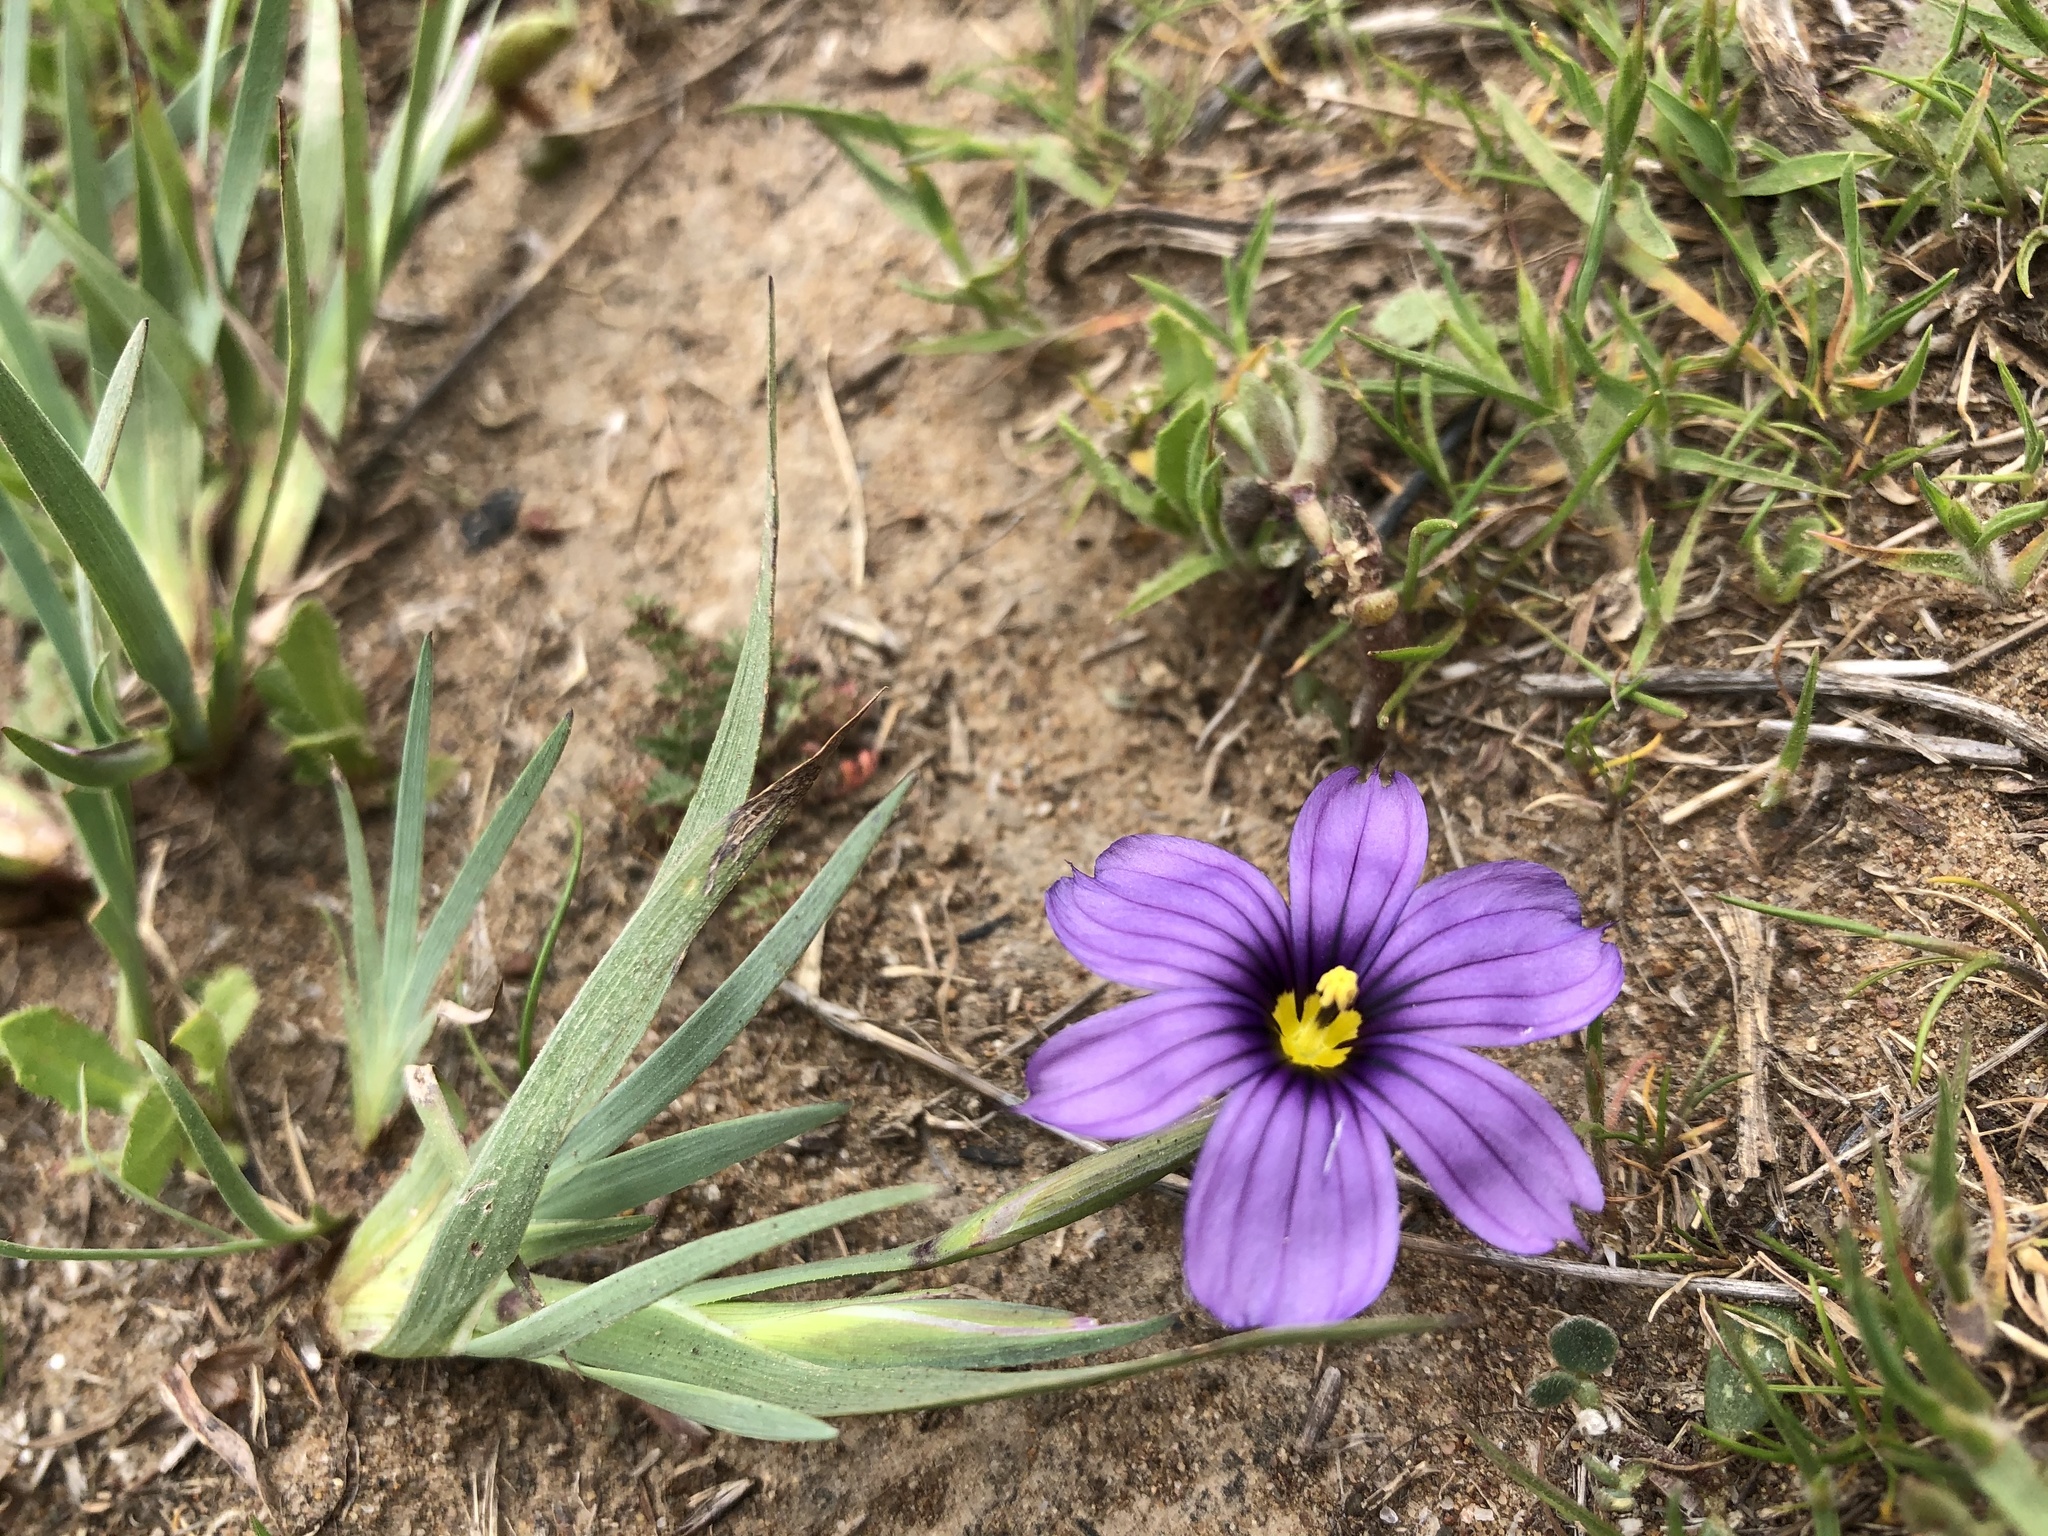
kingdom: Plantae
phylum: Tracheophyta
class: Liliopsida
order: Asparagales
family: Iridaceae
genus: Sisyrinchium
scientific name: Sisyrinchium bellum
